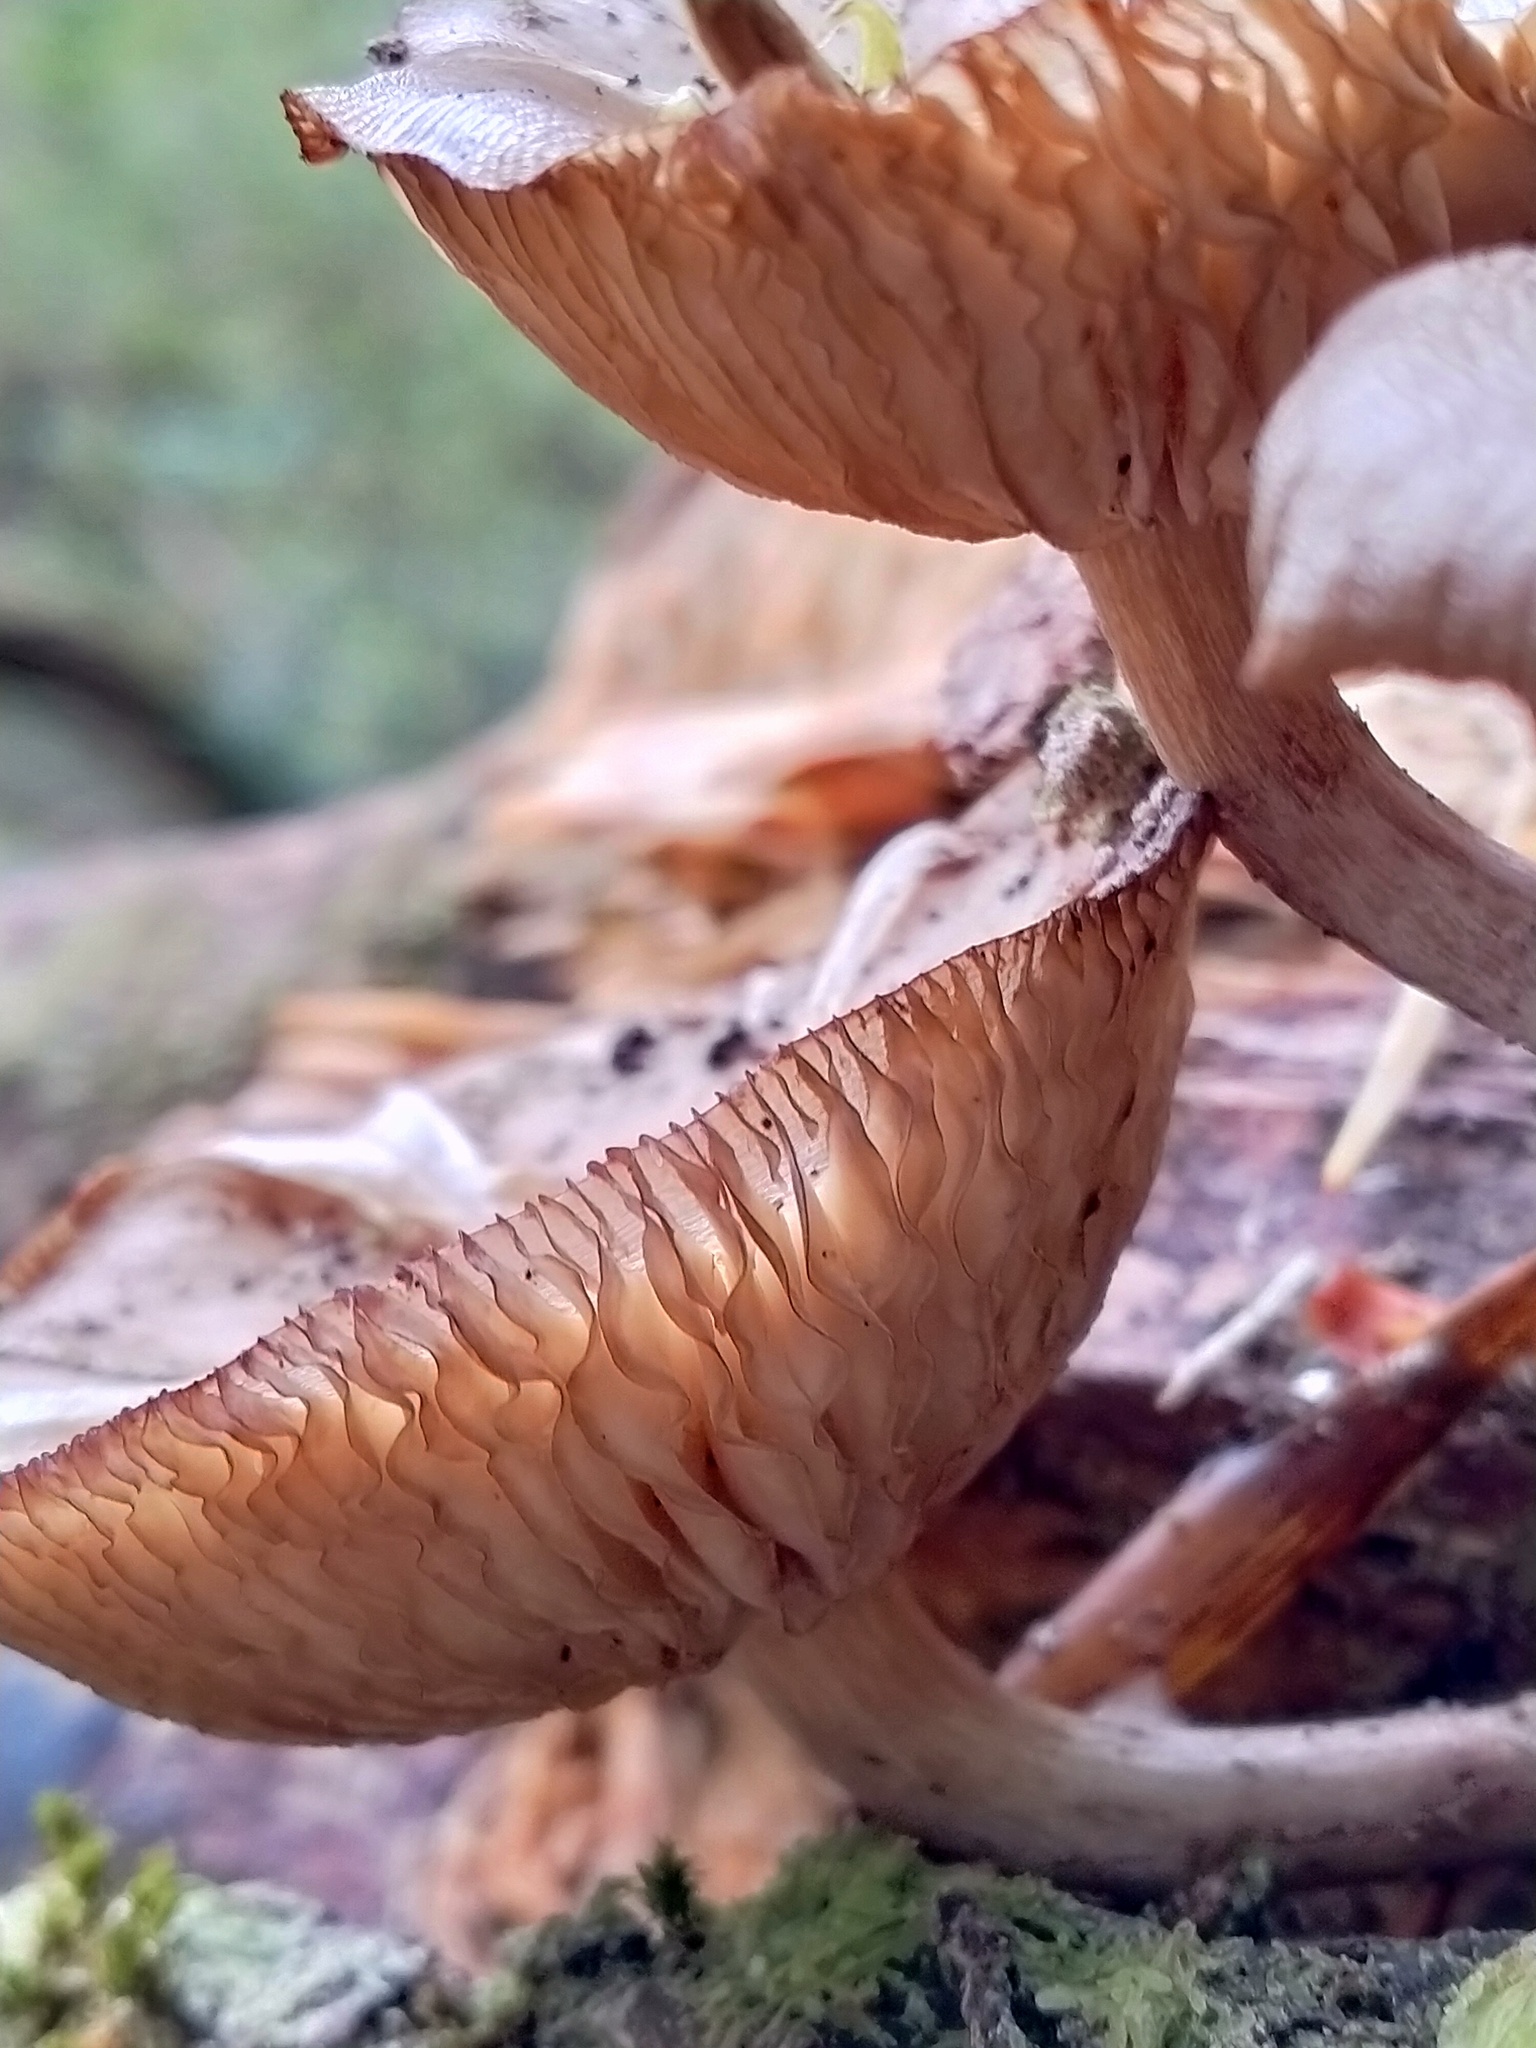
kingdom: Fungi
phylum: Basidiomycota
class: Agaricomycetes
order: Agaricales
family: Physalacriaceae
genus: Armillaria
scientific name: Armillaria novae-zelandiae
